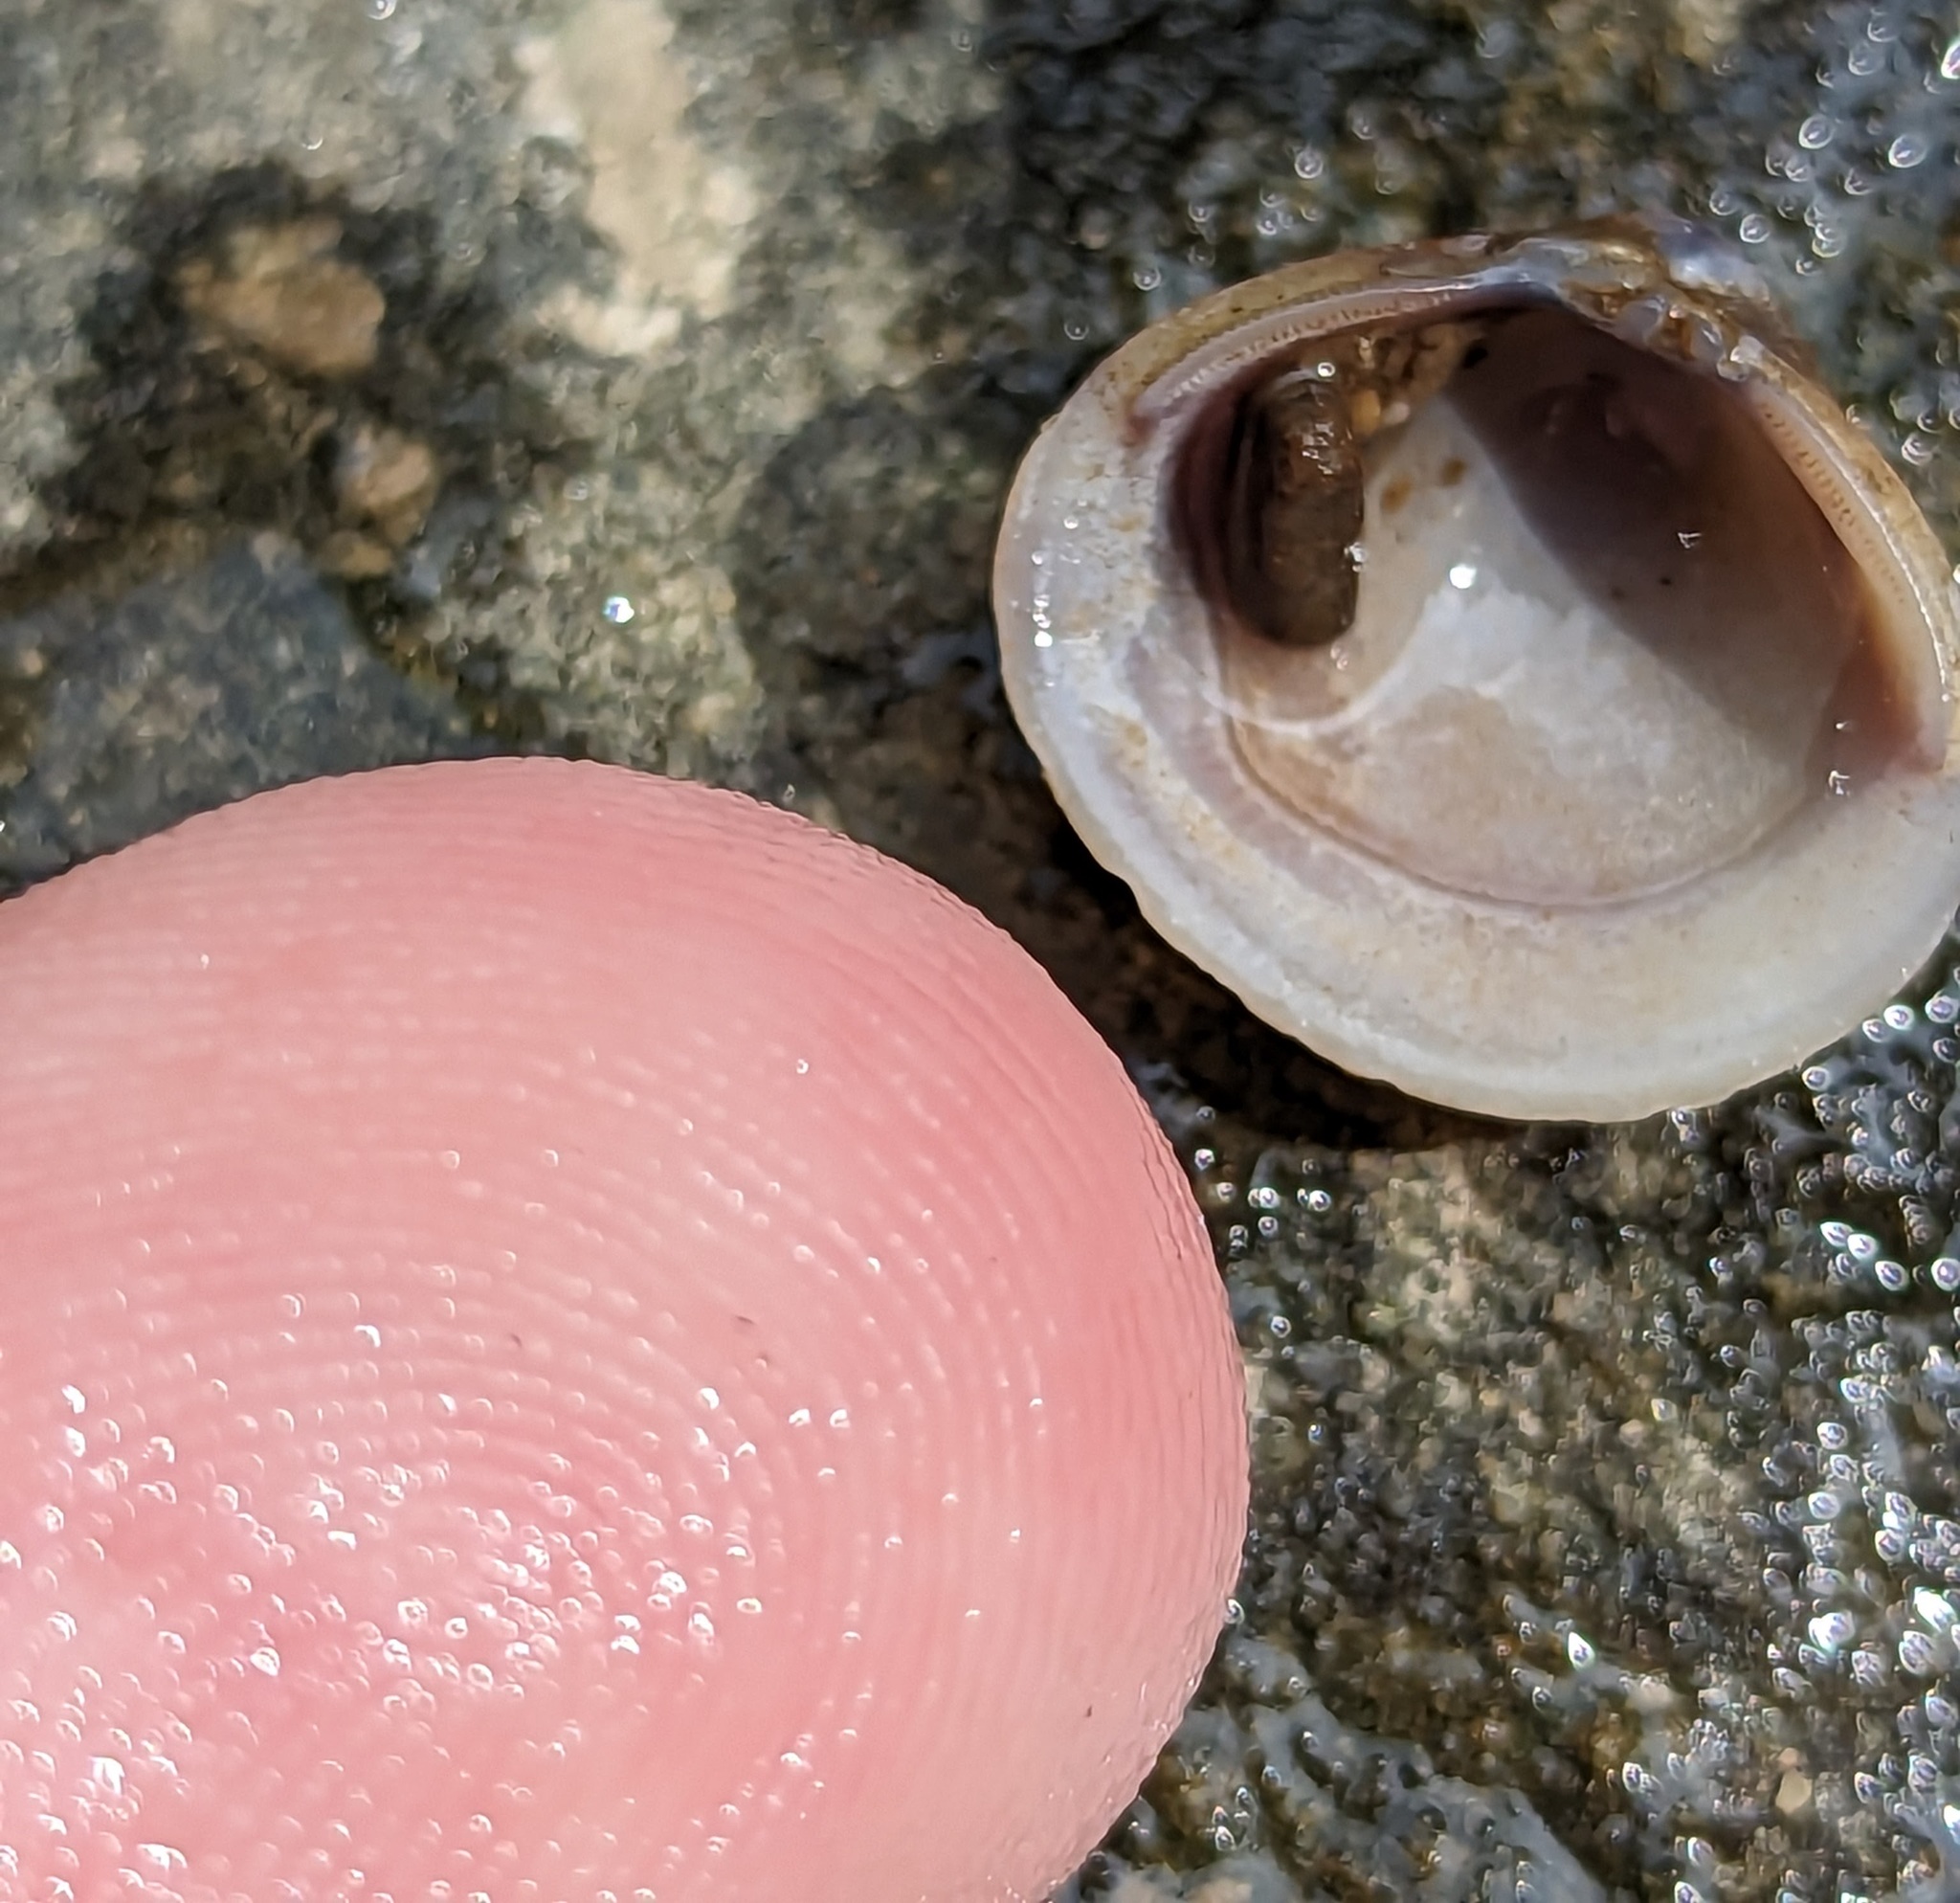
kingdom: Animalia
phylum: Mollusca
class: Bivalvia
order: Venerida
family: Cyrenidae
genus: Corbicula
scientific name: Corbicula fluminea
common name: Asian clam
